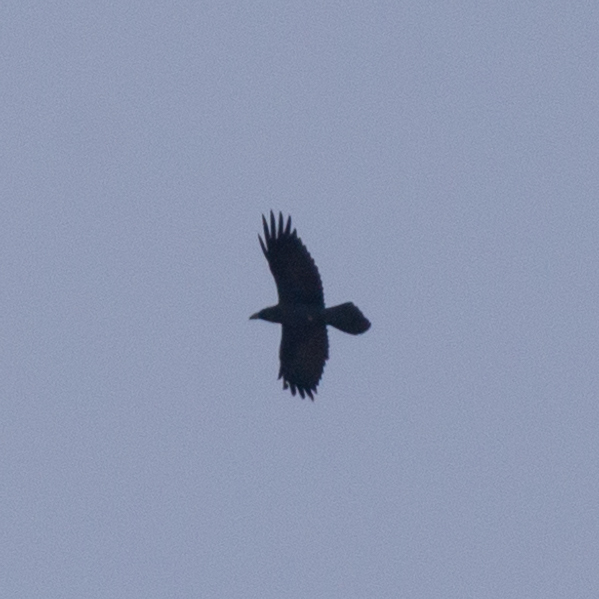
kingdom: Animalia
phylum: Chordata
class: Aves
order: Passeriformes
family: Corvidae
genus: Corvus
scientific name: Corvus corax
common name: Common raven
